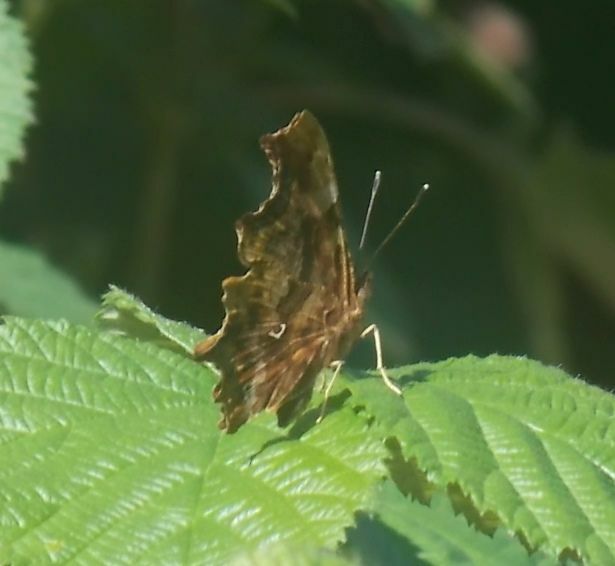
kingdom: Animalia
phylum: Arthropoda
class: Insecta
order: Lepidoptera
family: Nymphalidae
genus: Polygonia
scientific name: Polygonia c-album
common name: Comma
